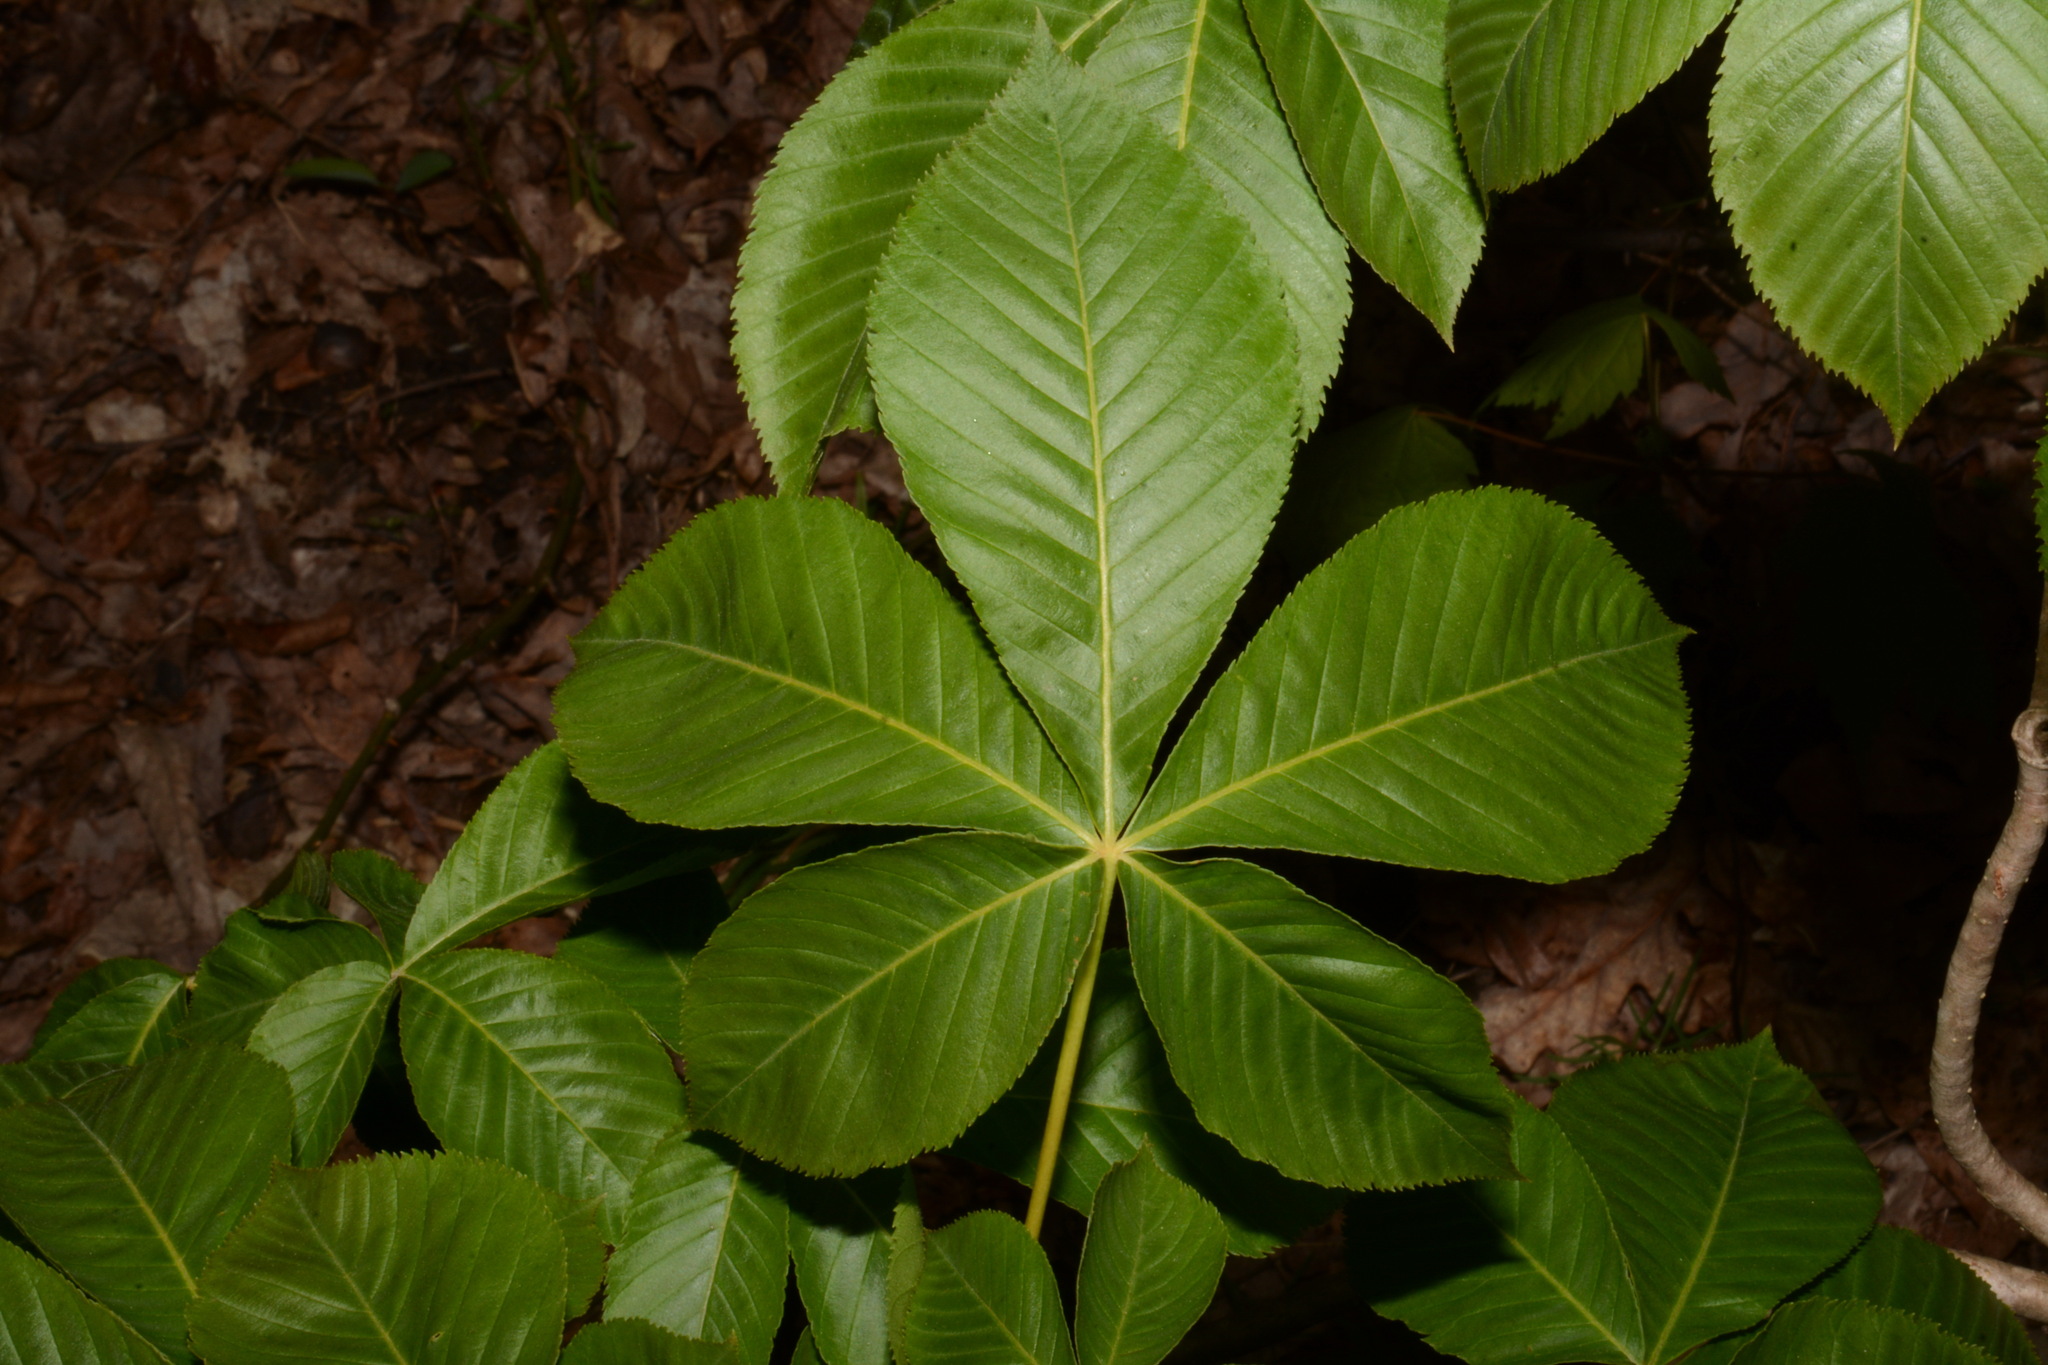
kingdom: Plantae
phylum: Tracheophyta
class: Magnoliopsida
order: Sapindales
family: Sapindaceae
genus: Aesculus
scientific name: Aesculus sylvatica
